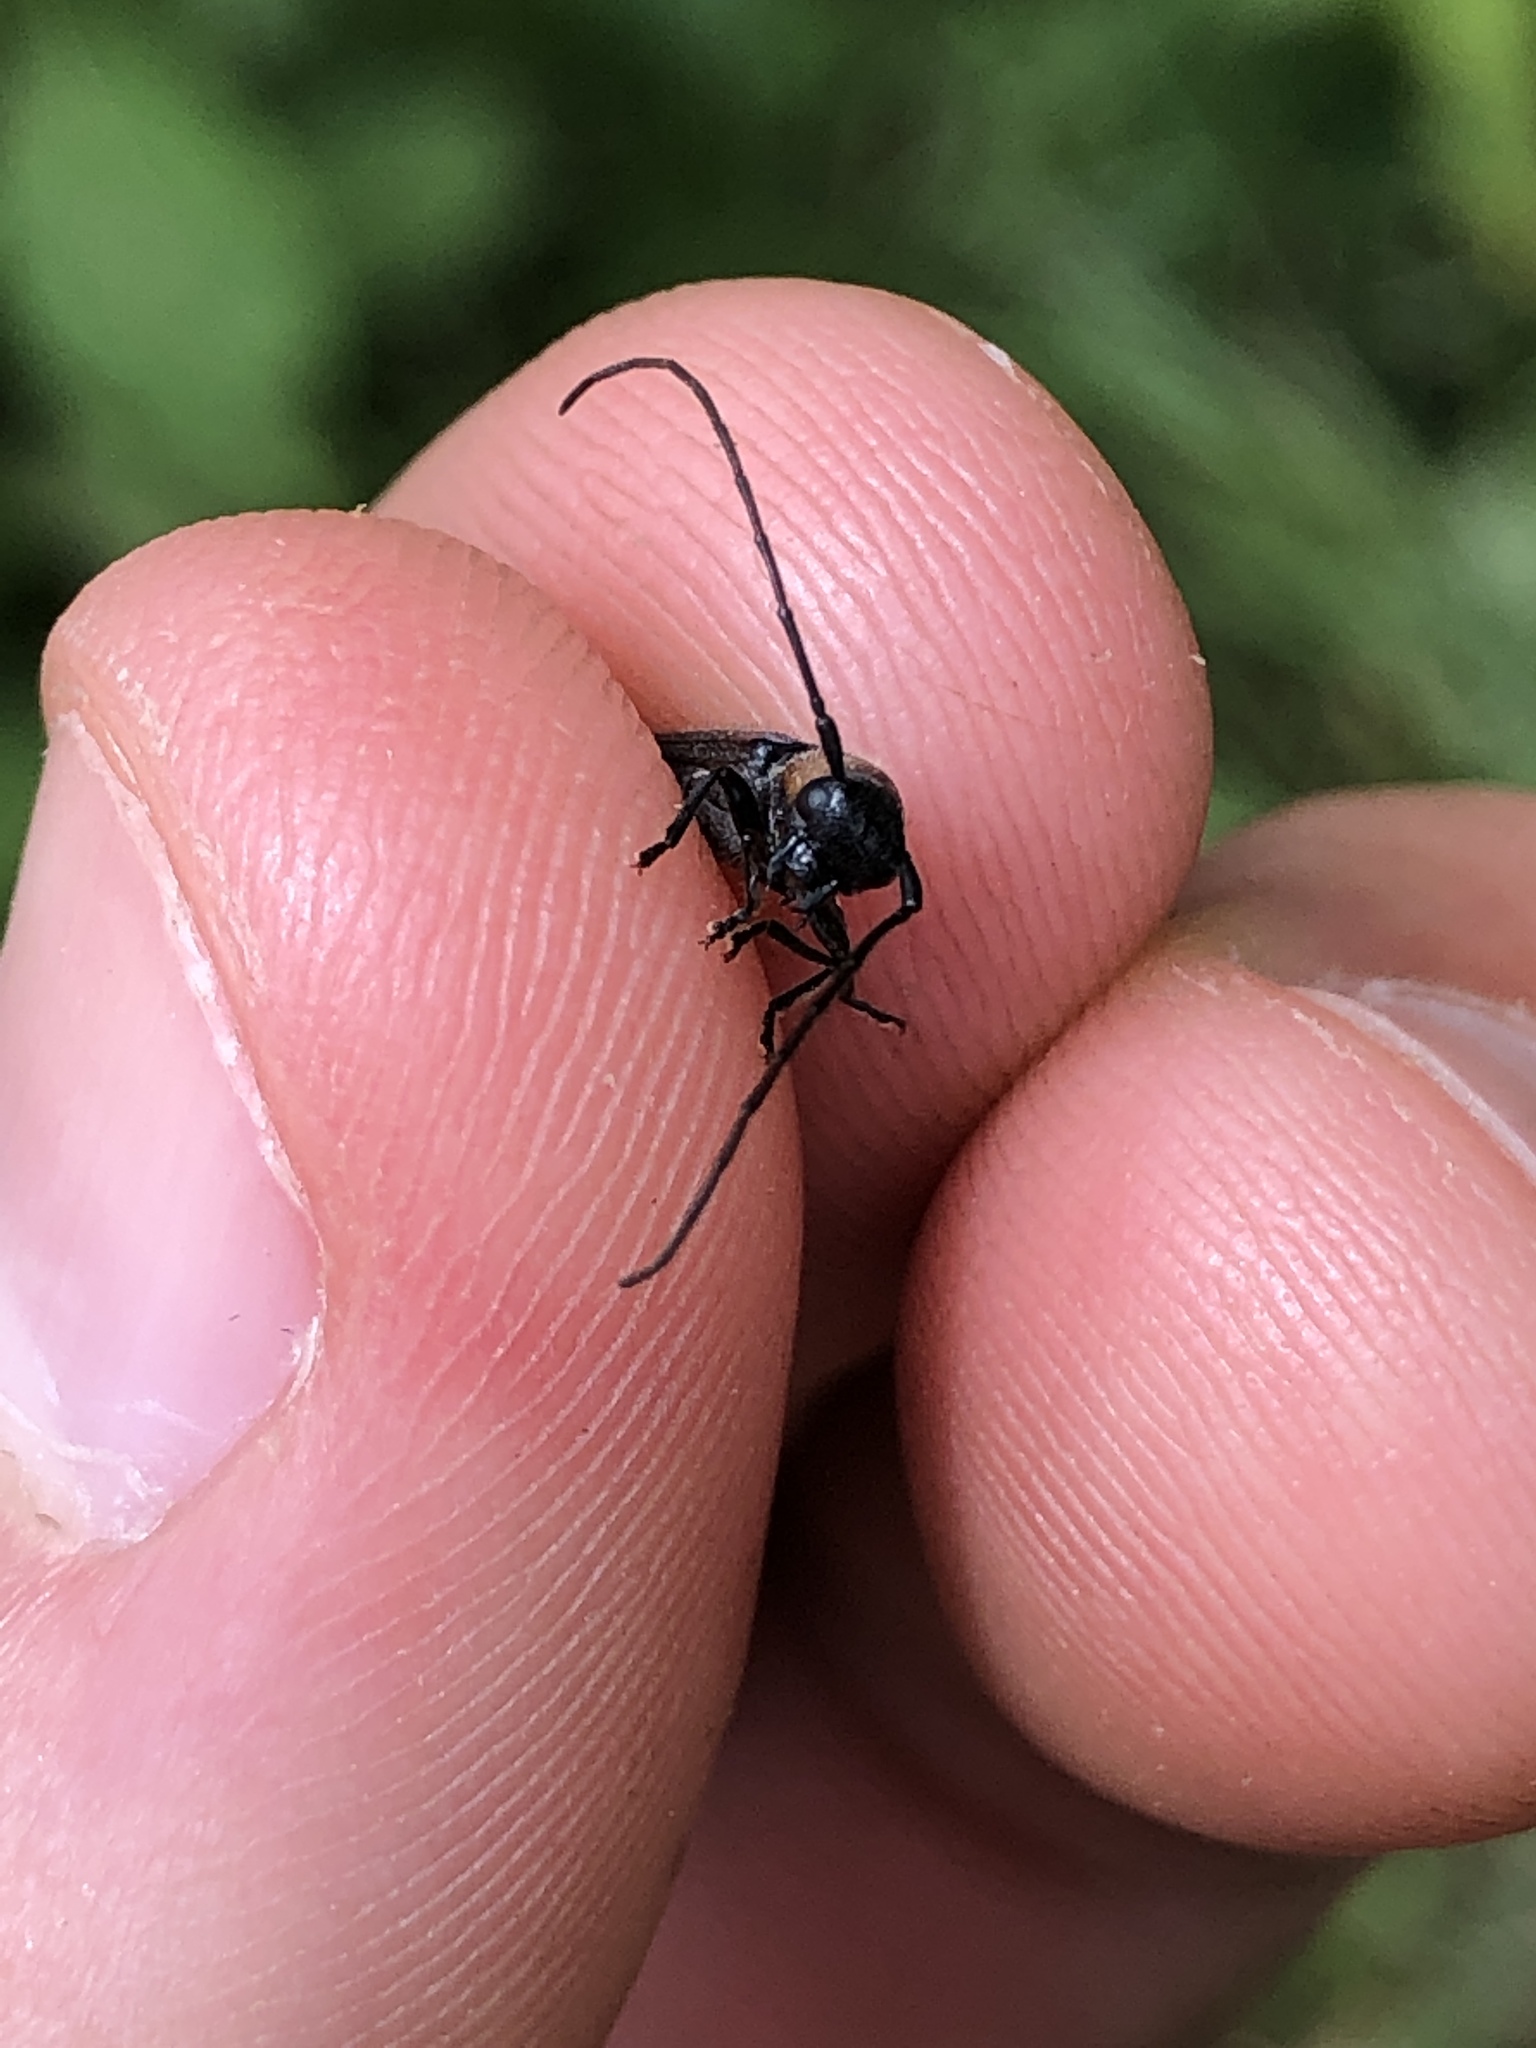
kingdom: Animalia
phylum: Arthropoda
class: Insecta
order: Coleoptera
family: Cerambycidae
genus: Oberea
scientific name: Oberea perspicillata
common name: Raspberry cane borer
